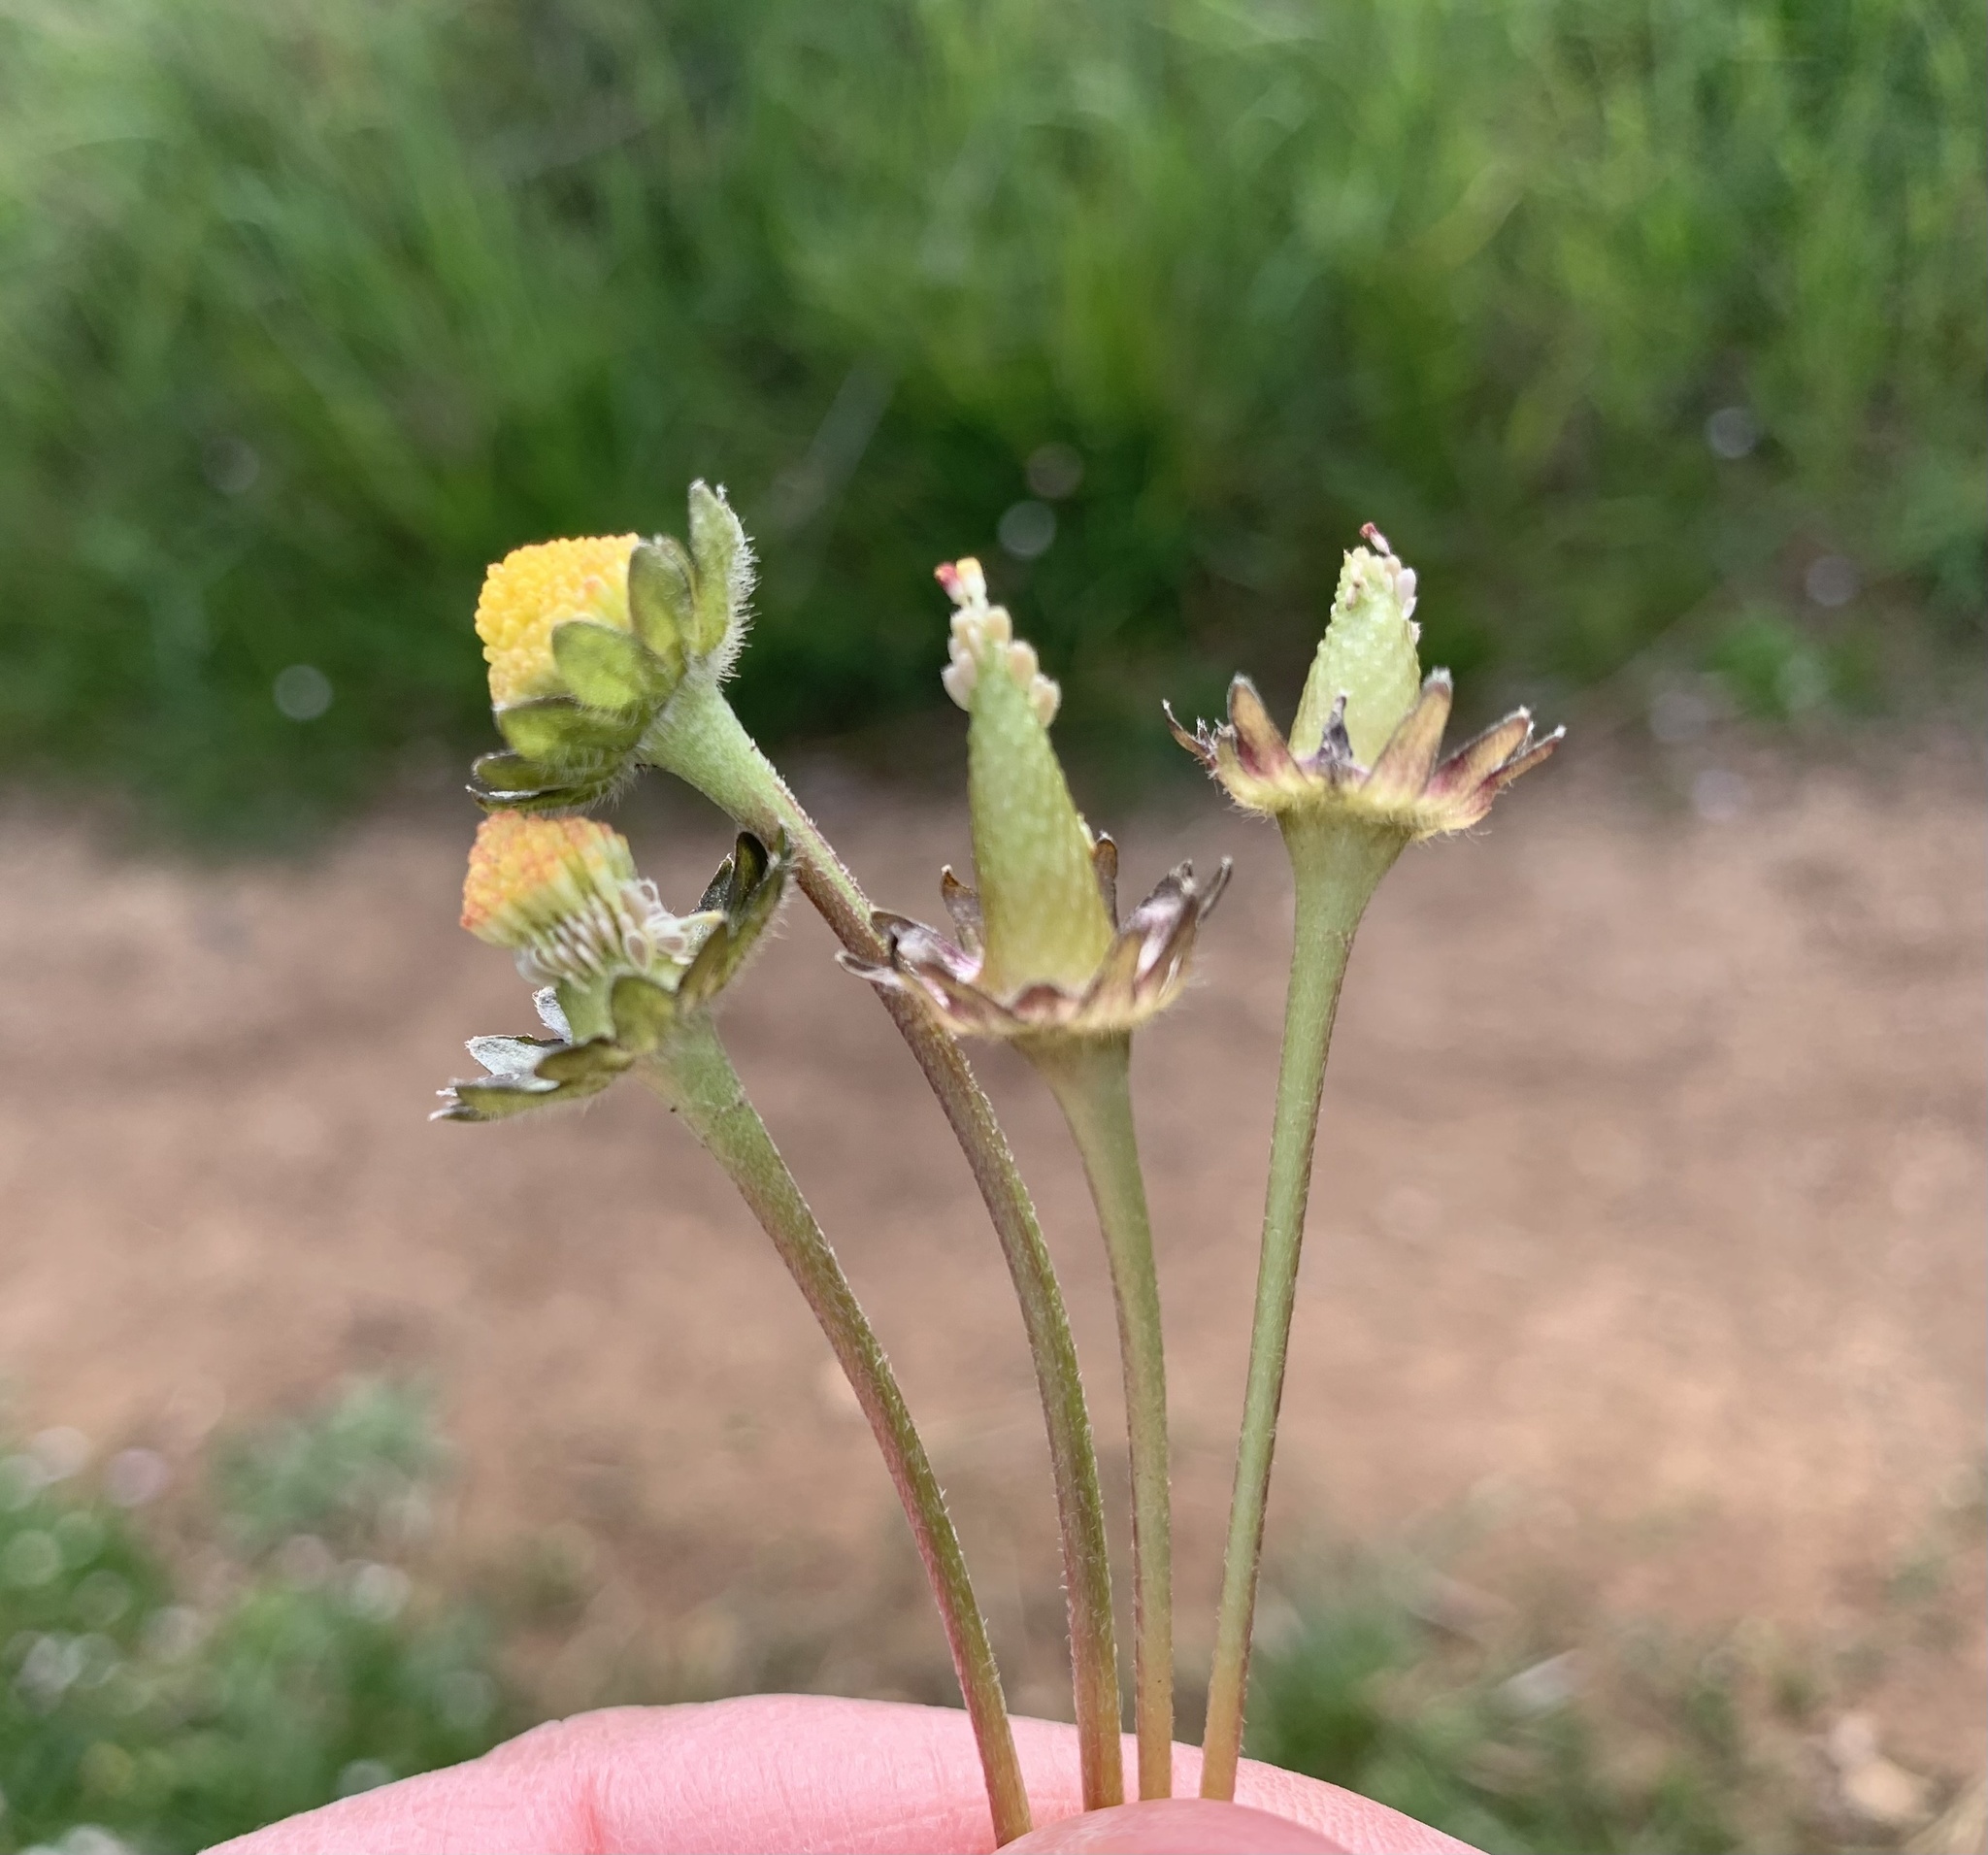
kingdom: Plantae
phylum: Tracheophyta
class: Magnoliopsida
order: Asterales
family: Asteraceae
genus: Bellis
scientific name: Bellis perennis
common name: Lawndaisy
